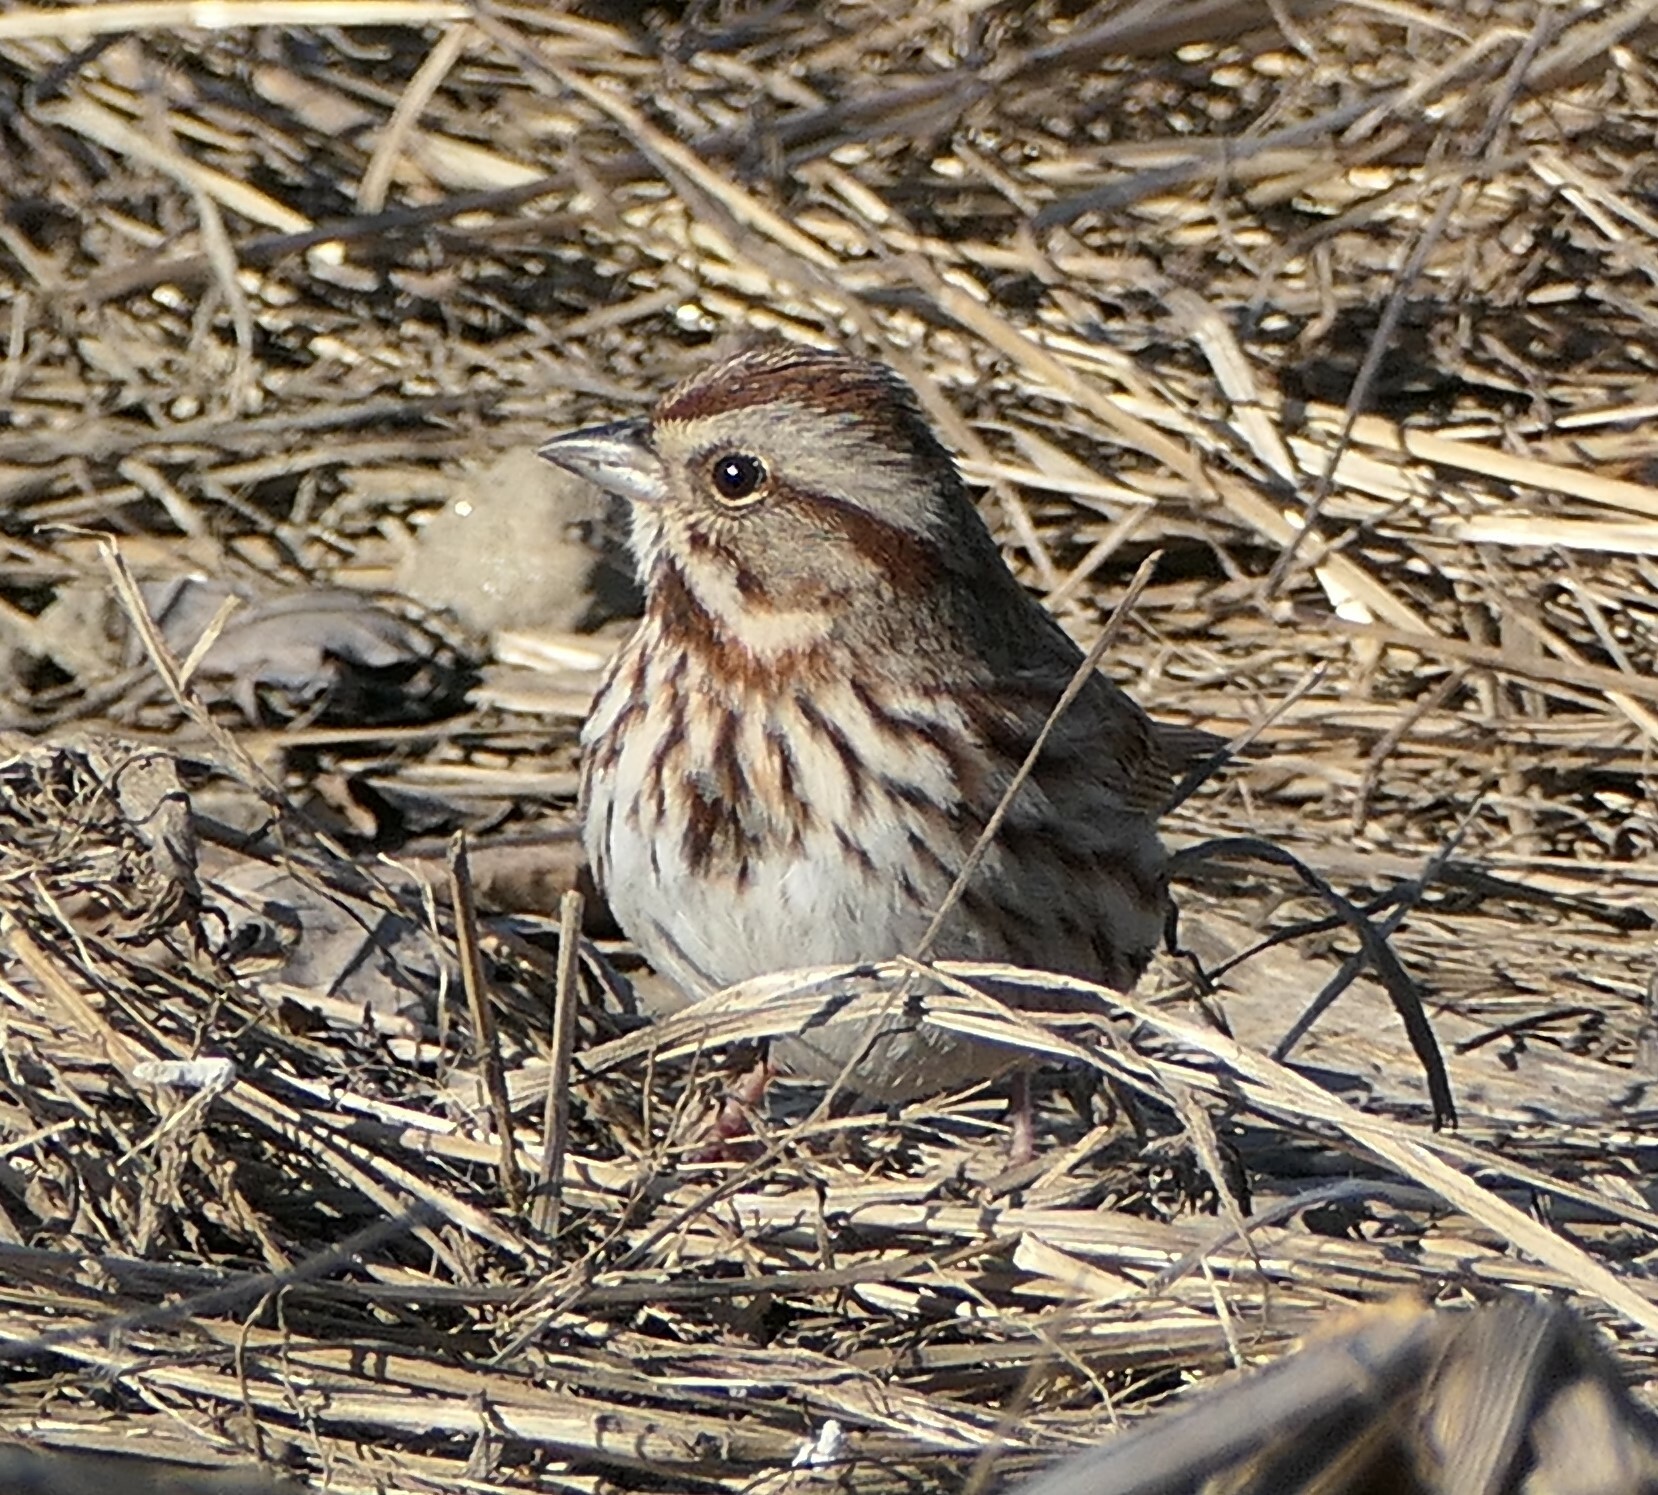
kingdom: Animalia
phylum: Chordata
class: Aves
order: Passeriformes
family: Passerellidae
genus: Melospiza
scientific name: Melospiza melodia
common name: Song sparrow
